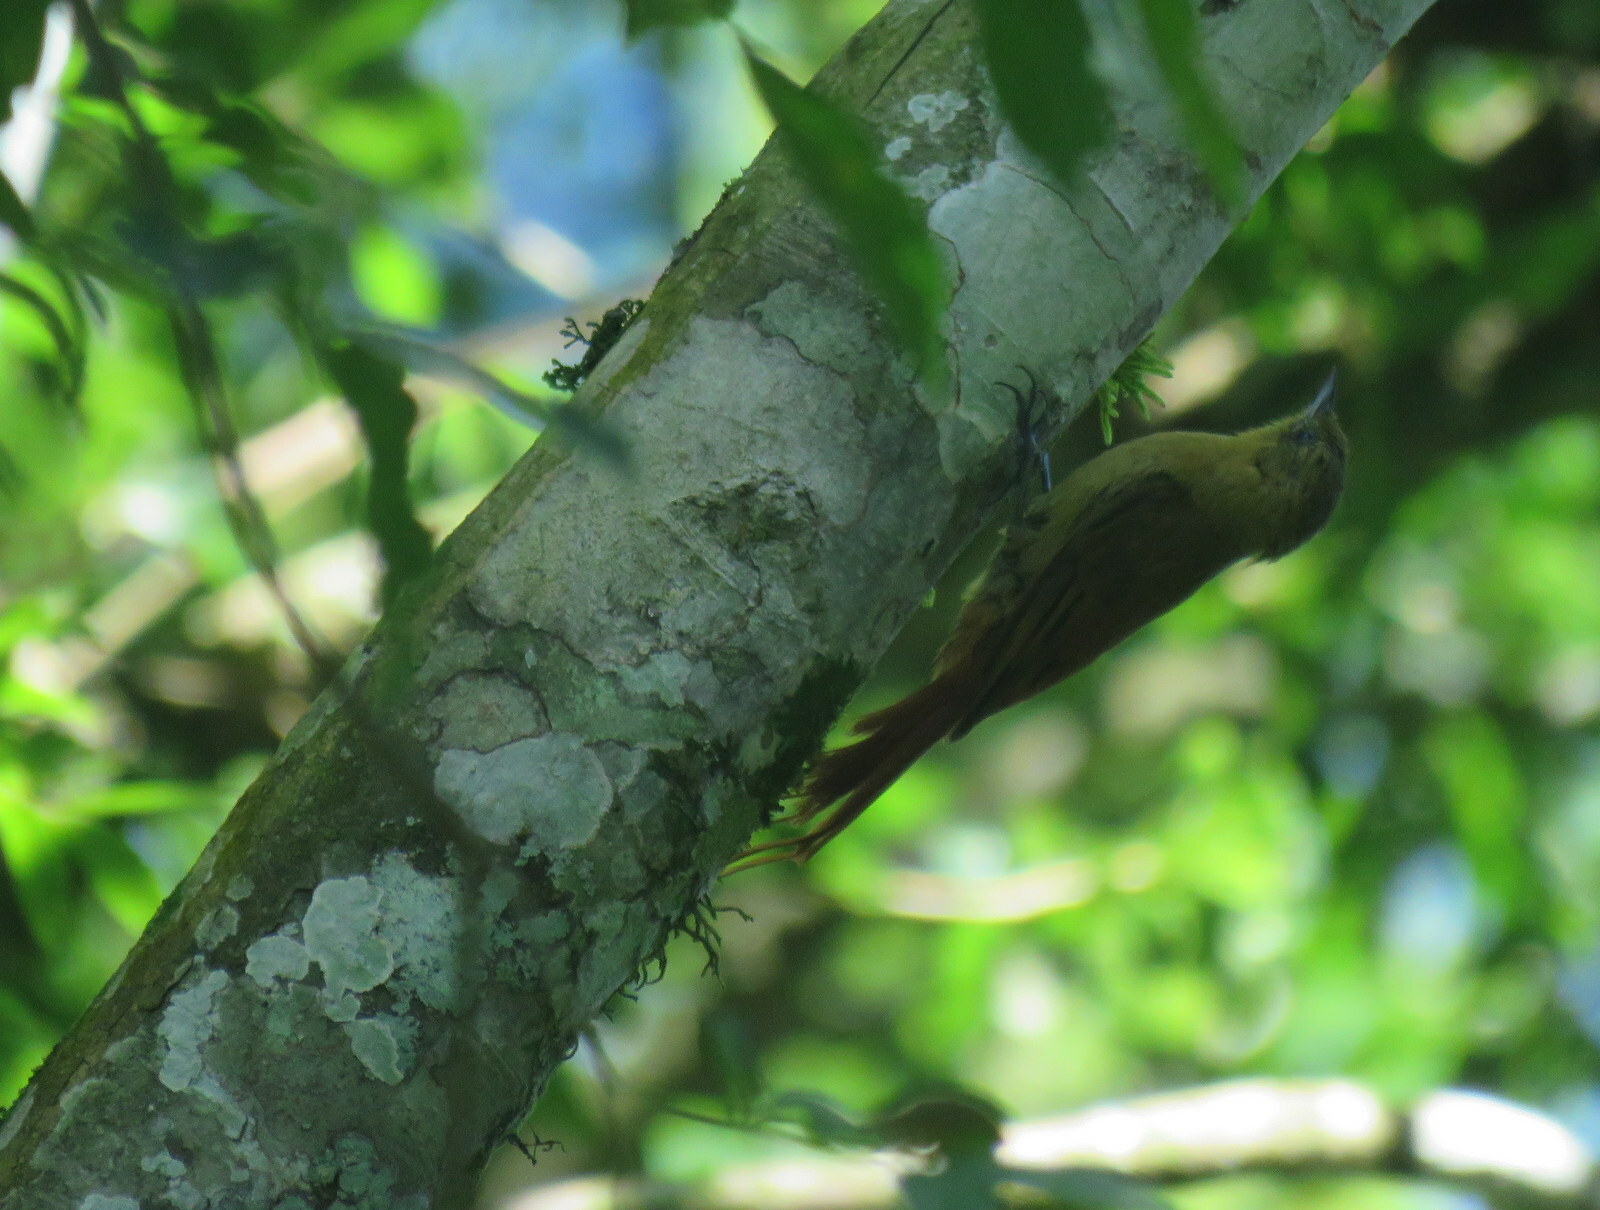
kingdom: Animalia
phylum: Chordata
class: Aves
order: Passeriformes
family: Furnariidae
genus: Sittasomus
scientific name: Sittasomus griseicapillus
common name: Olivaceous woodcreeper
